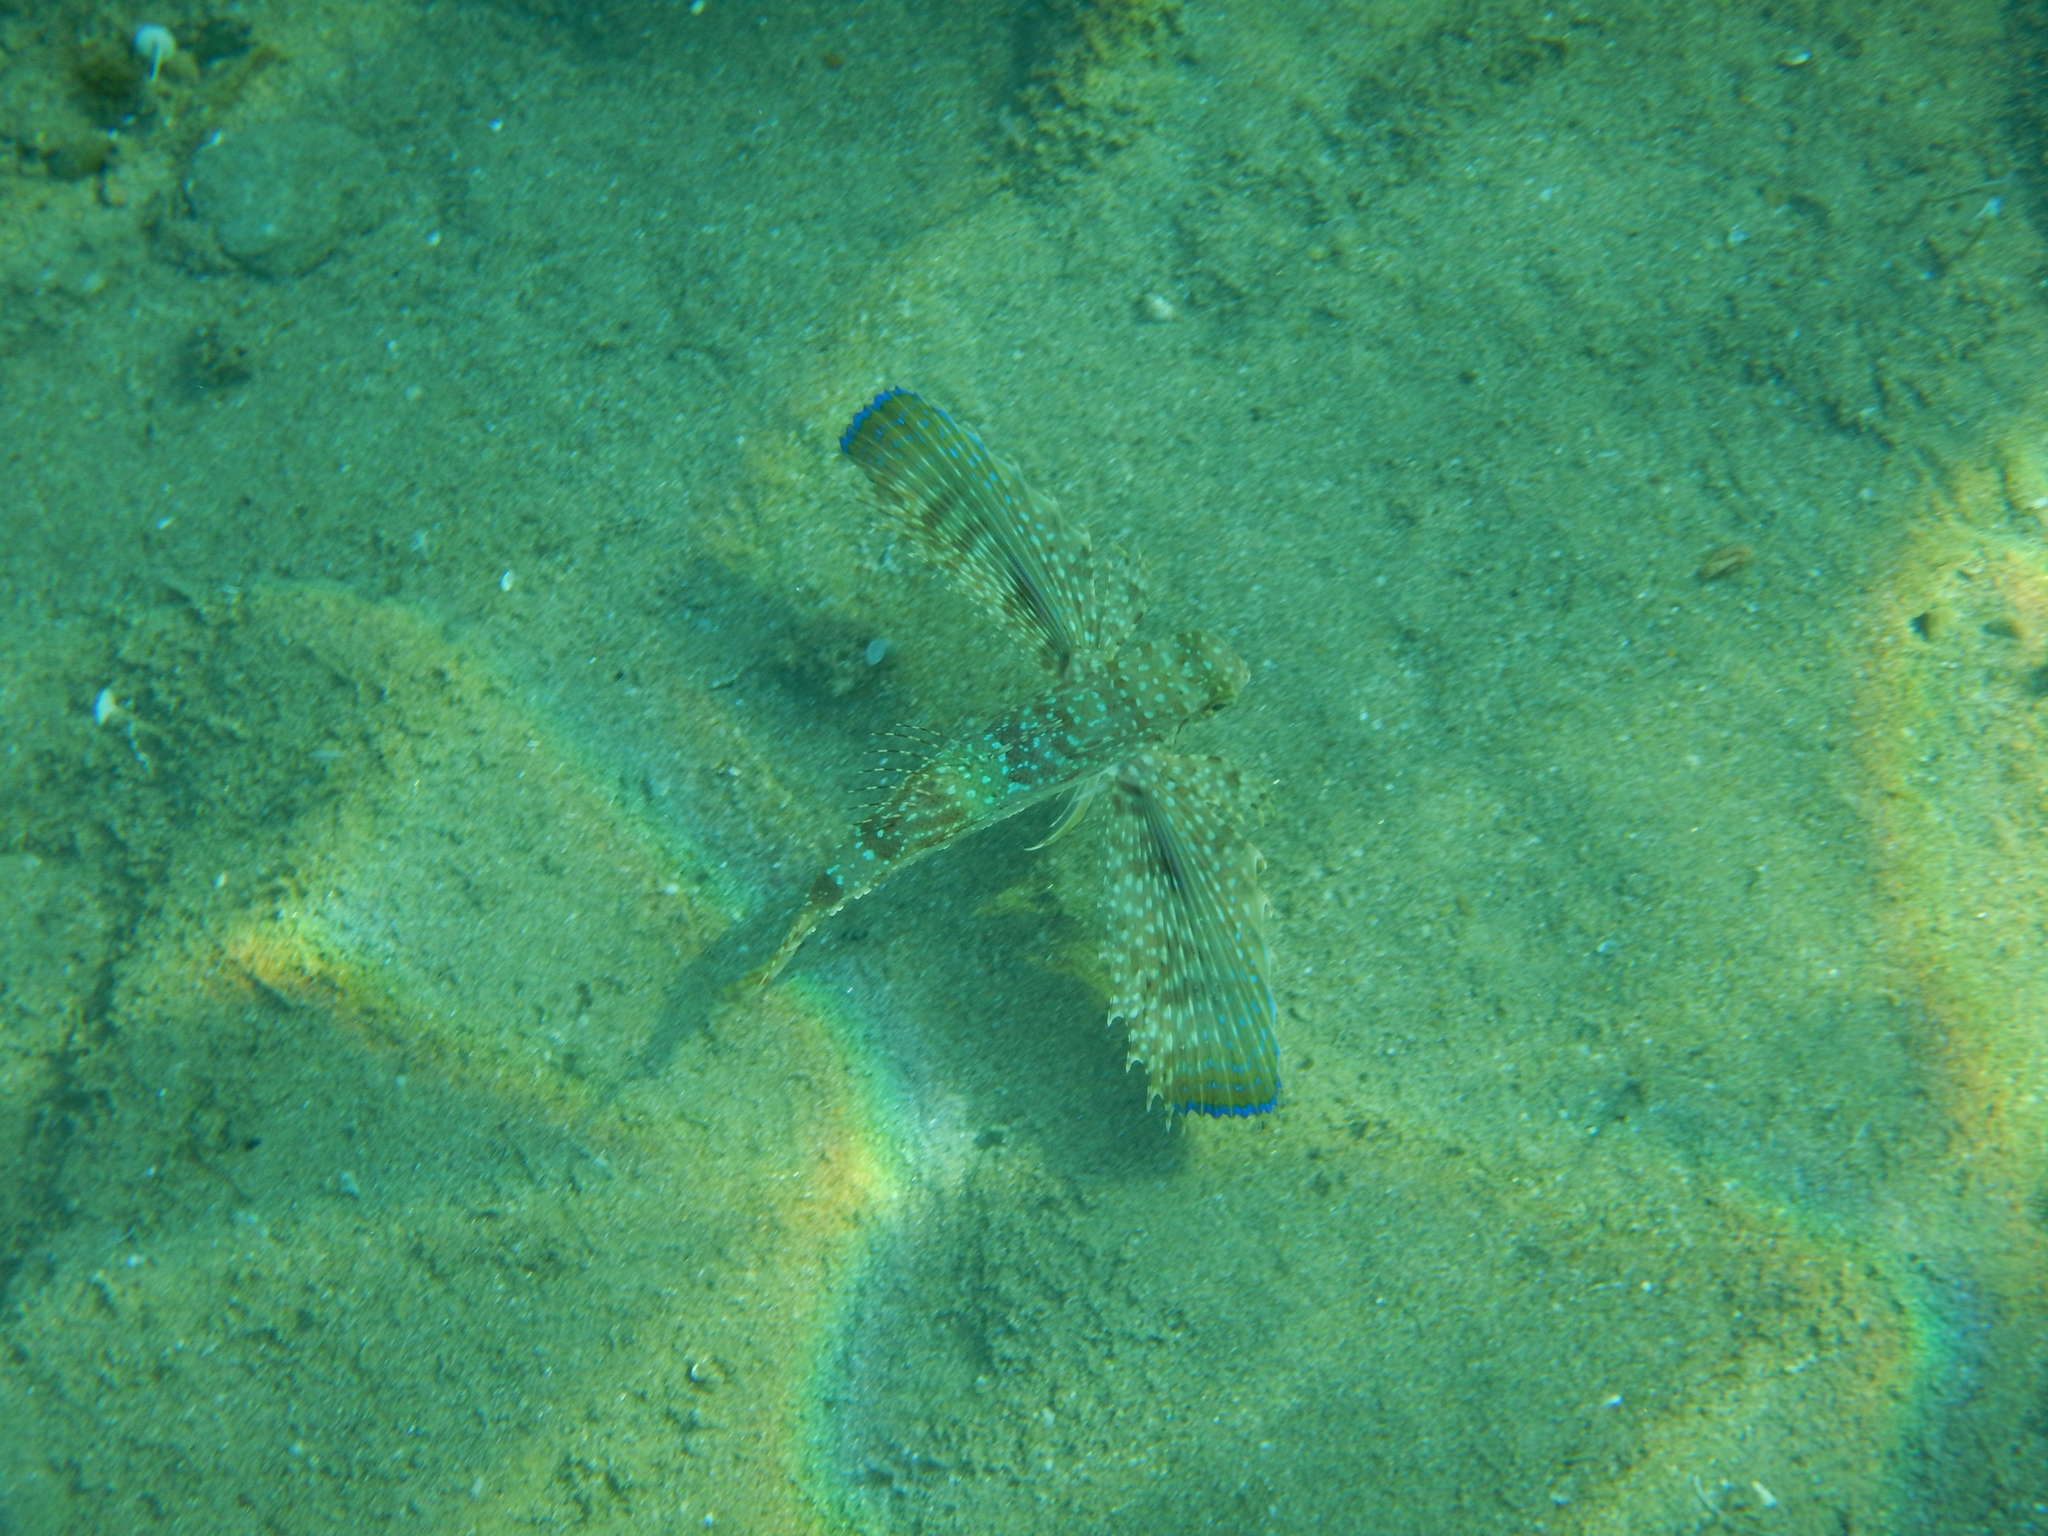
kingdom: Animalia
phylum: Chordata
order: Scorpaeniformes
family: Dactylopteridae
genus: Dactylopterus
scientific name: Dactylopterus volitans
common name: Flying gurnard
